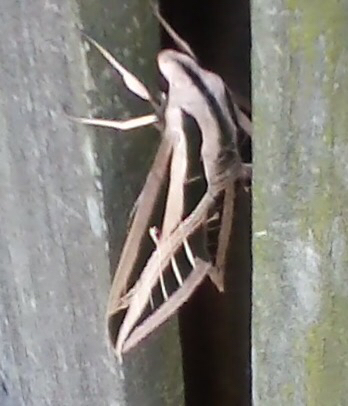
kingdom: Animalia
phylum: Arthropoda
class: Insecta
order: Lepidoptera
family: Sphingidae
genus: Eumorpha
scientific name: Eumorpha fasciatus
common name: Banded sphinx
